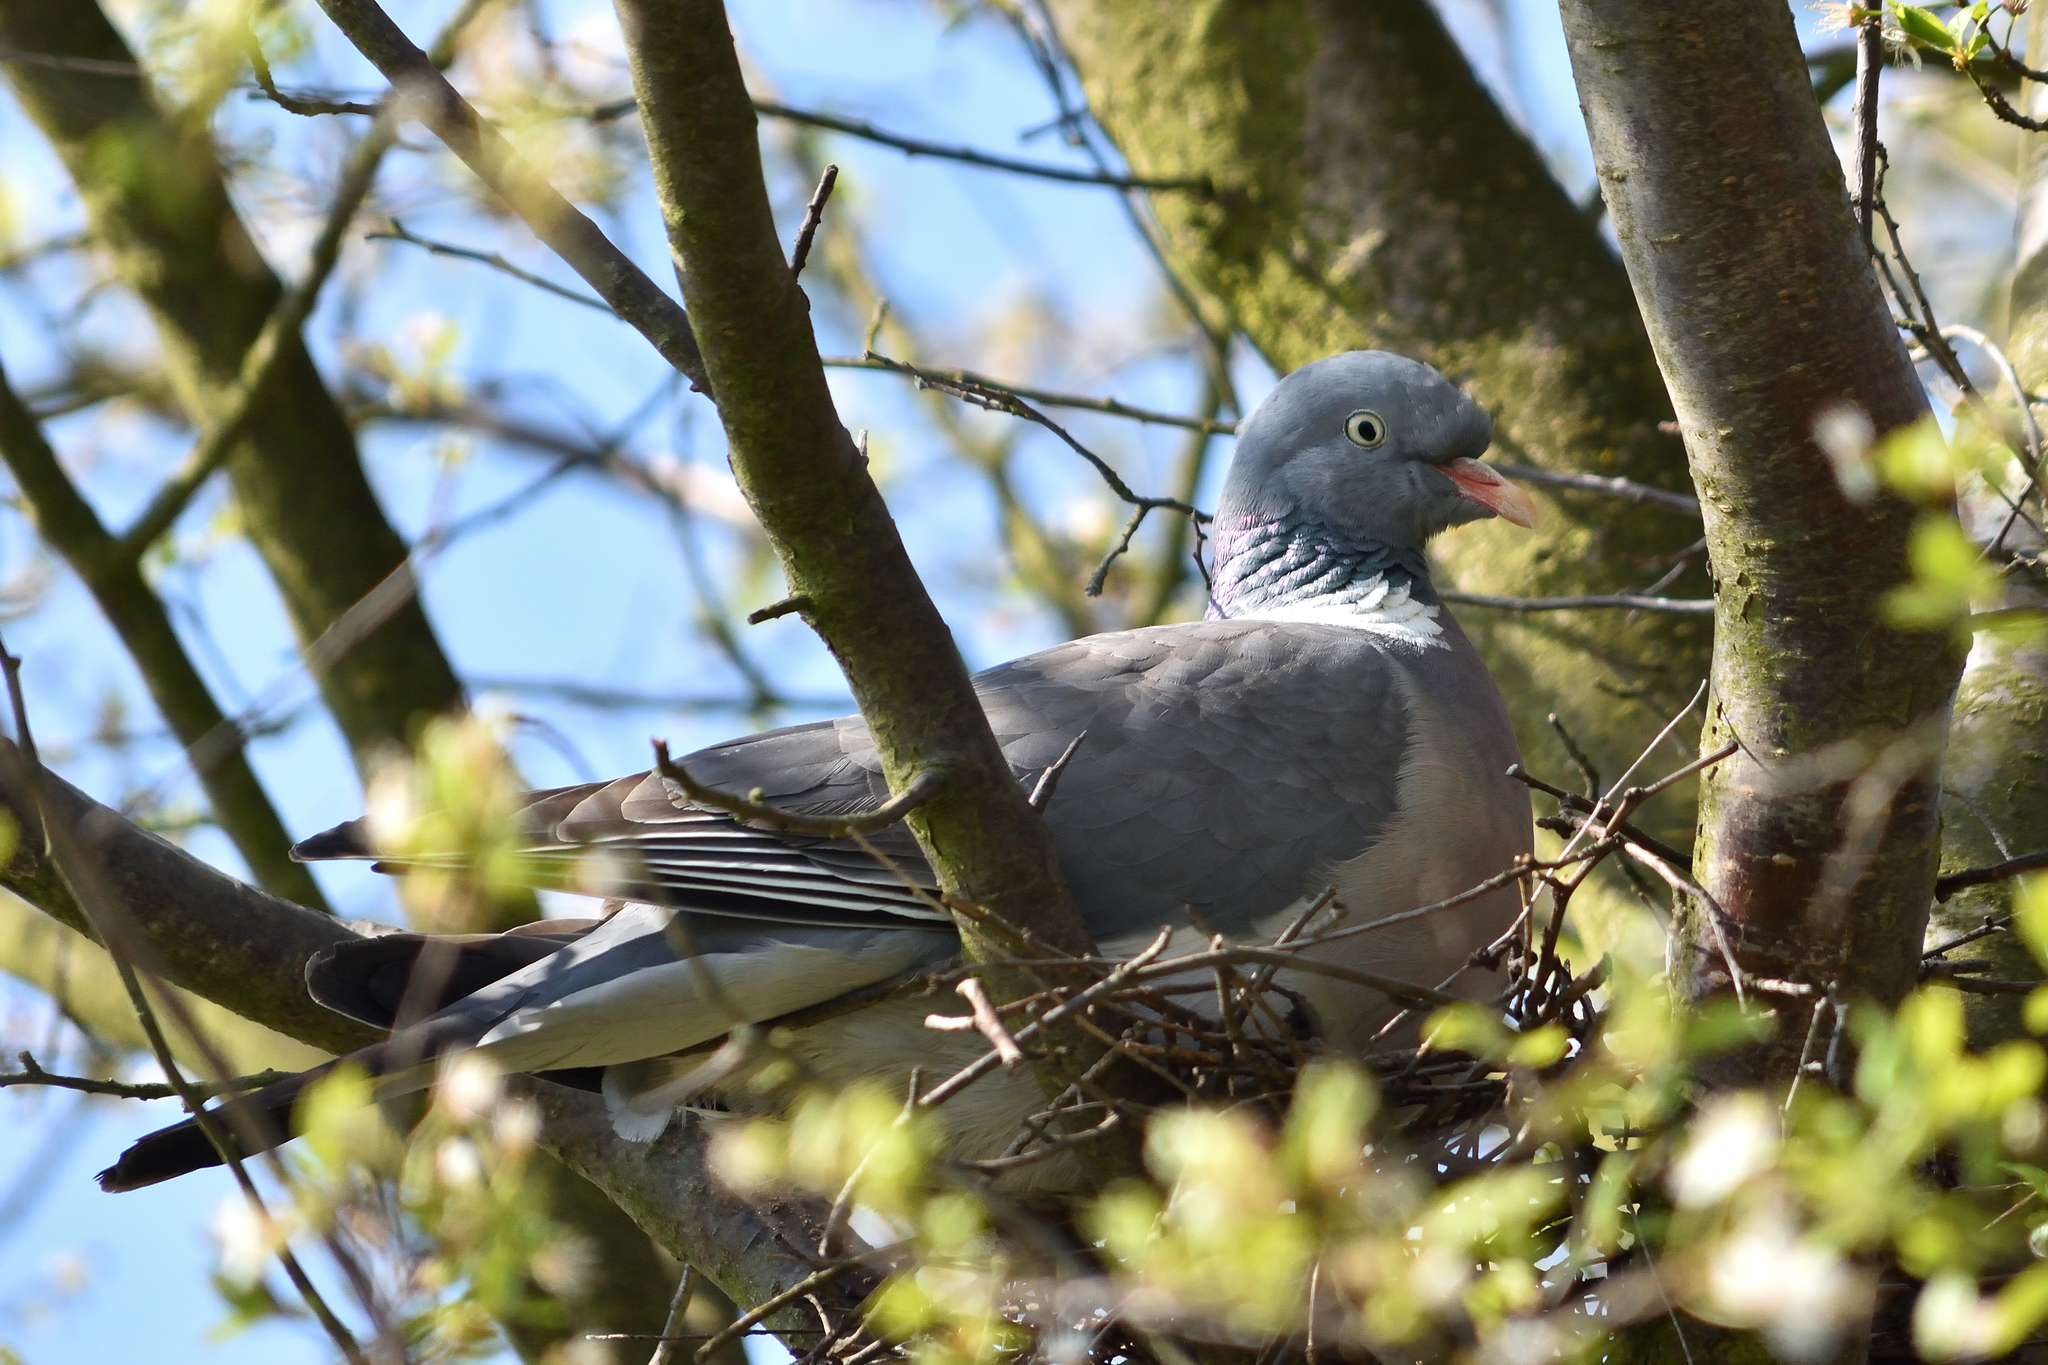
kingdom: Animalia
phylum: Chordata
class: Aves
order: Columbiformes
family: Columbidae
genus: Columba
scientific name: Columba palumbus
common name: Common wood pigeon
